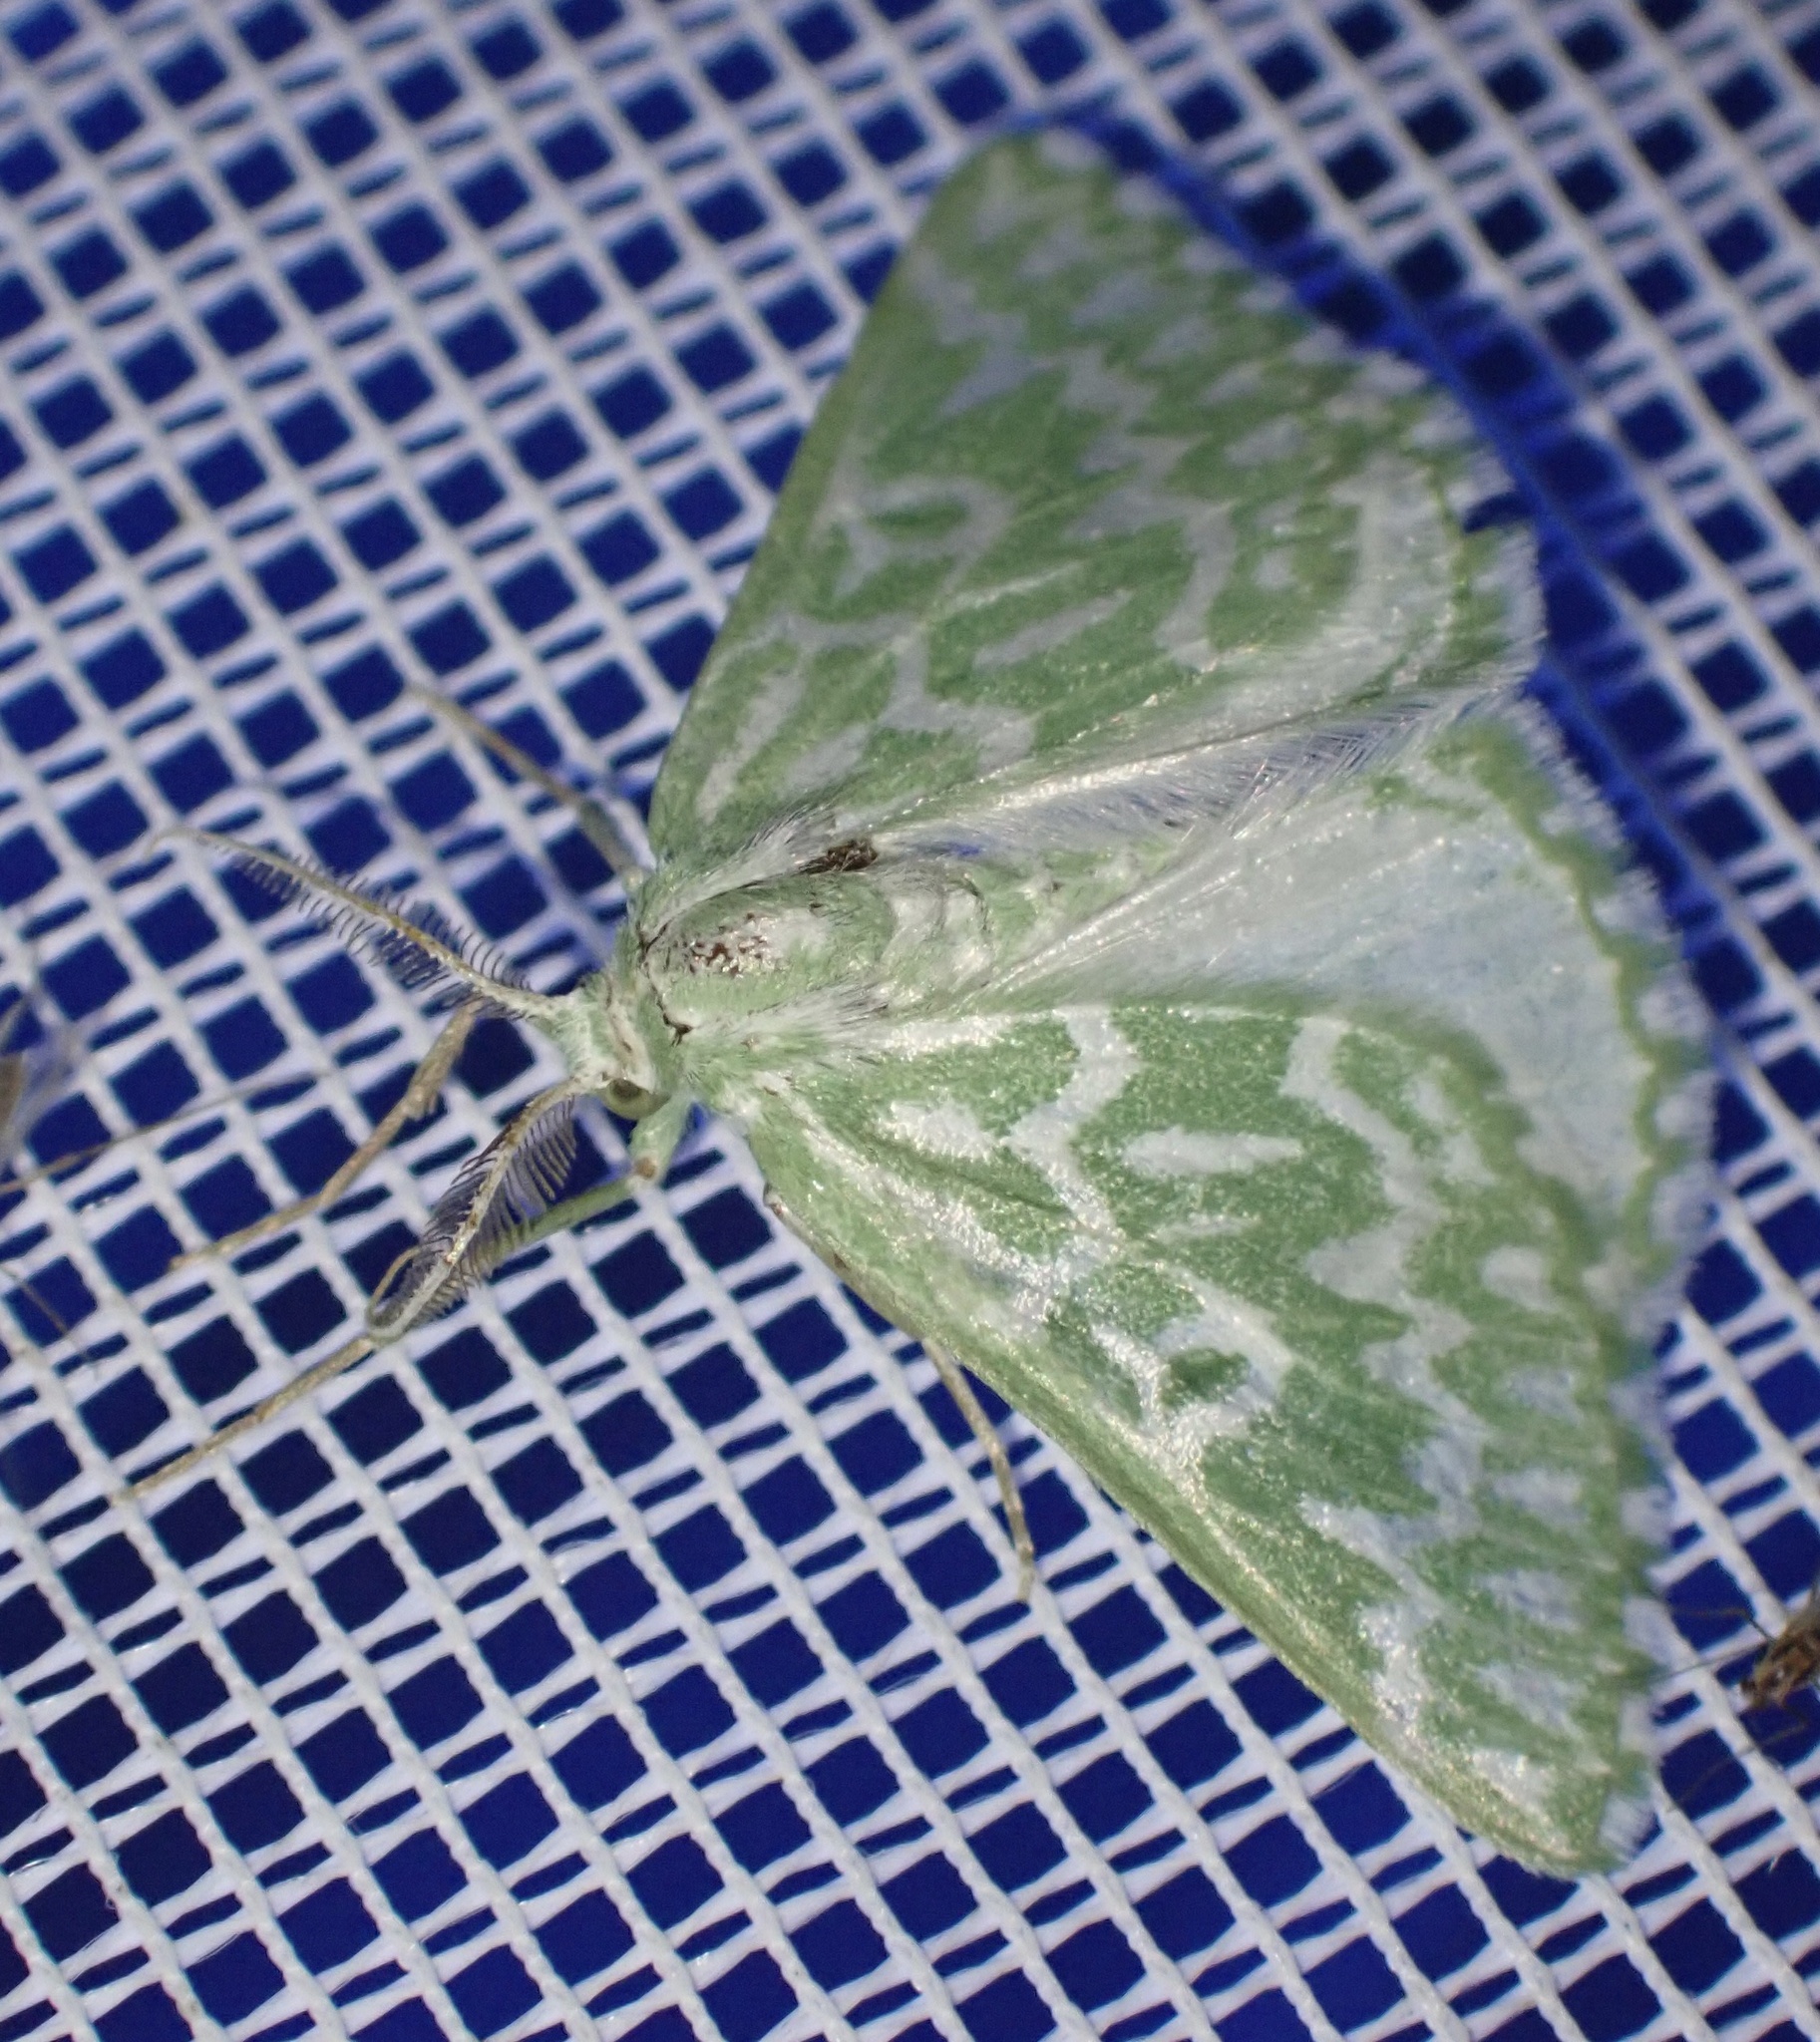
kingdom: Animalia
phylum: Arthropoda
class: Insecta
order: Lepidoptera
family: Geometridae
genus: Thetidia
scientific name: Thetidia plusiaria
